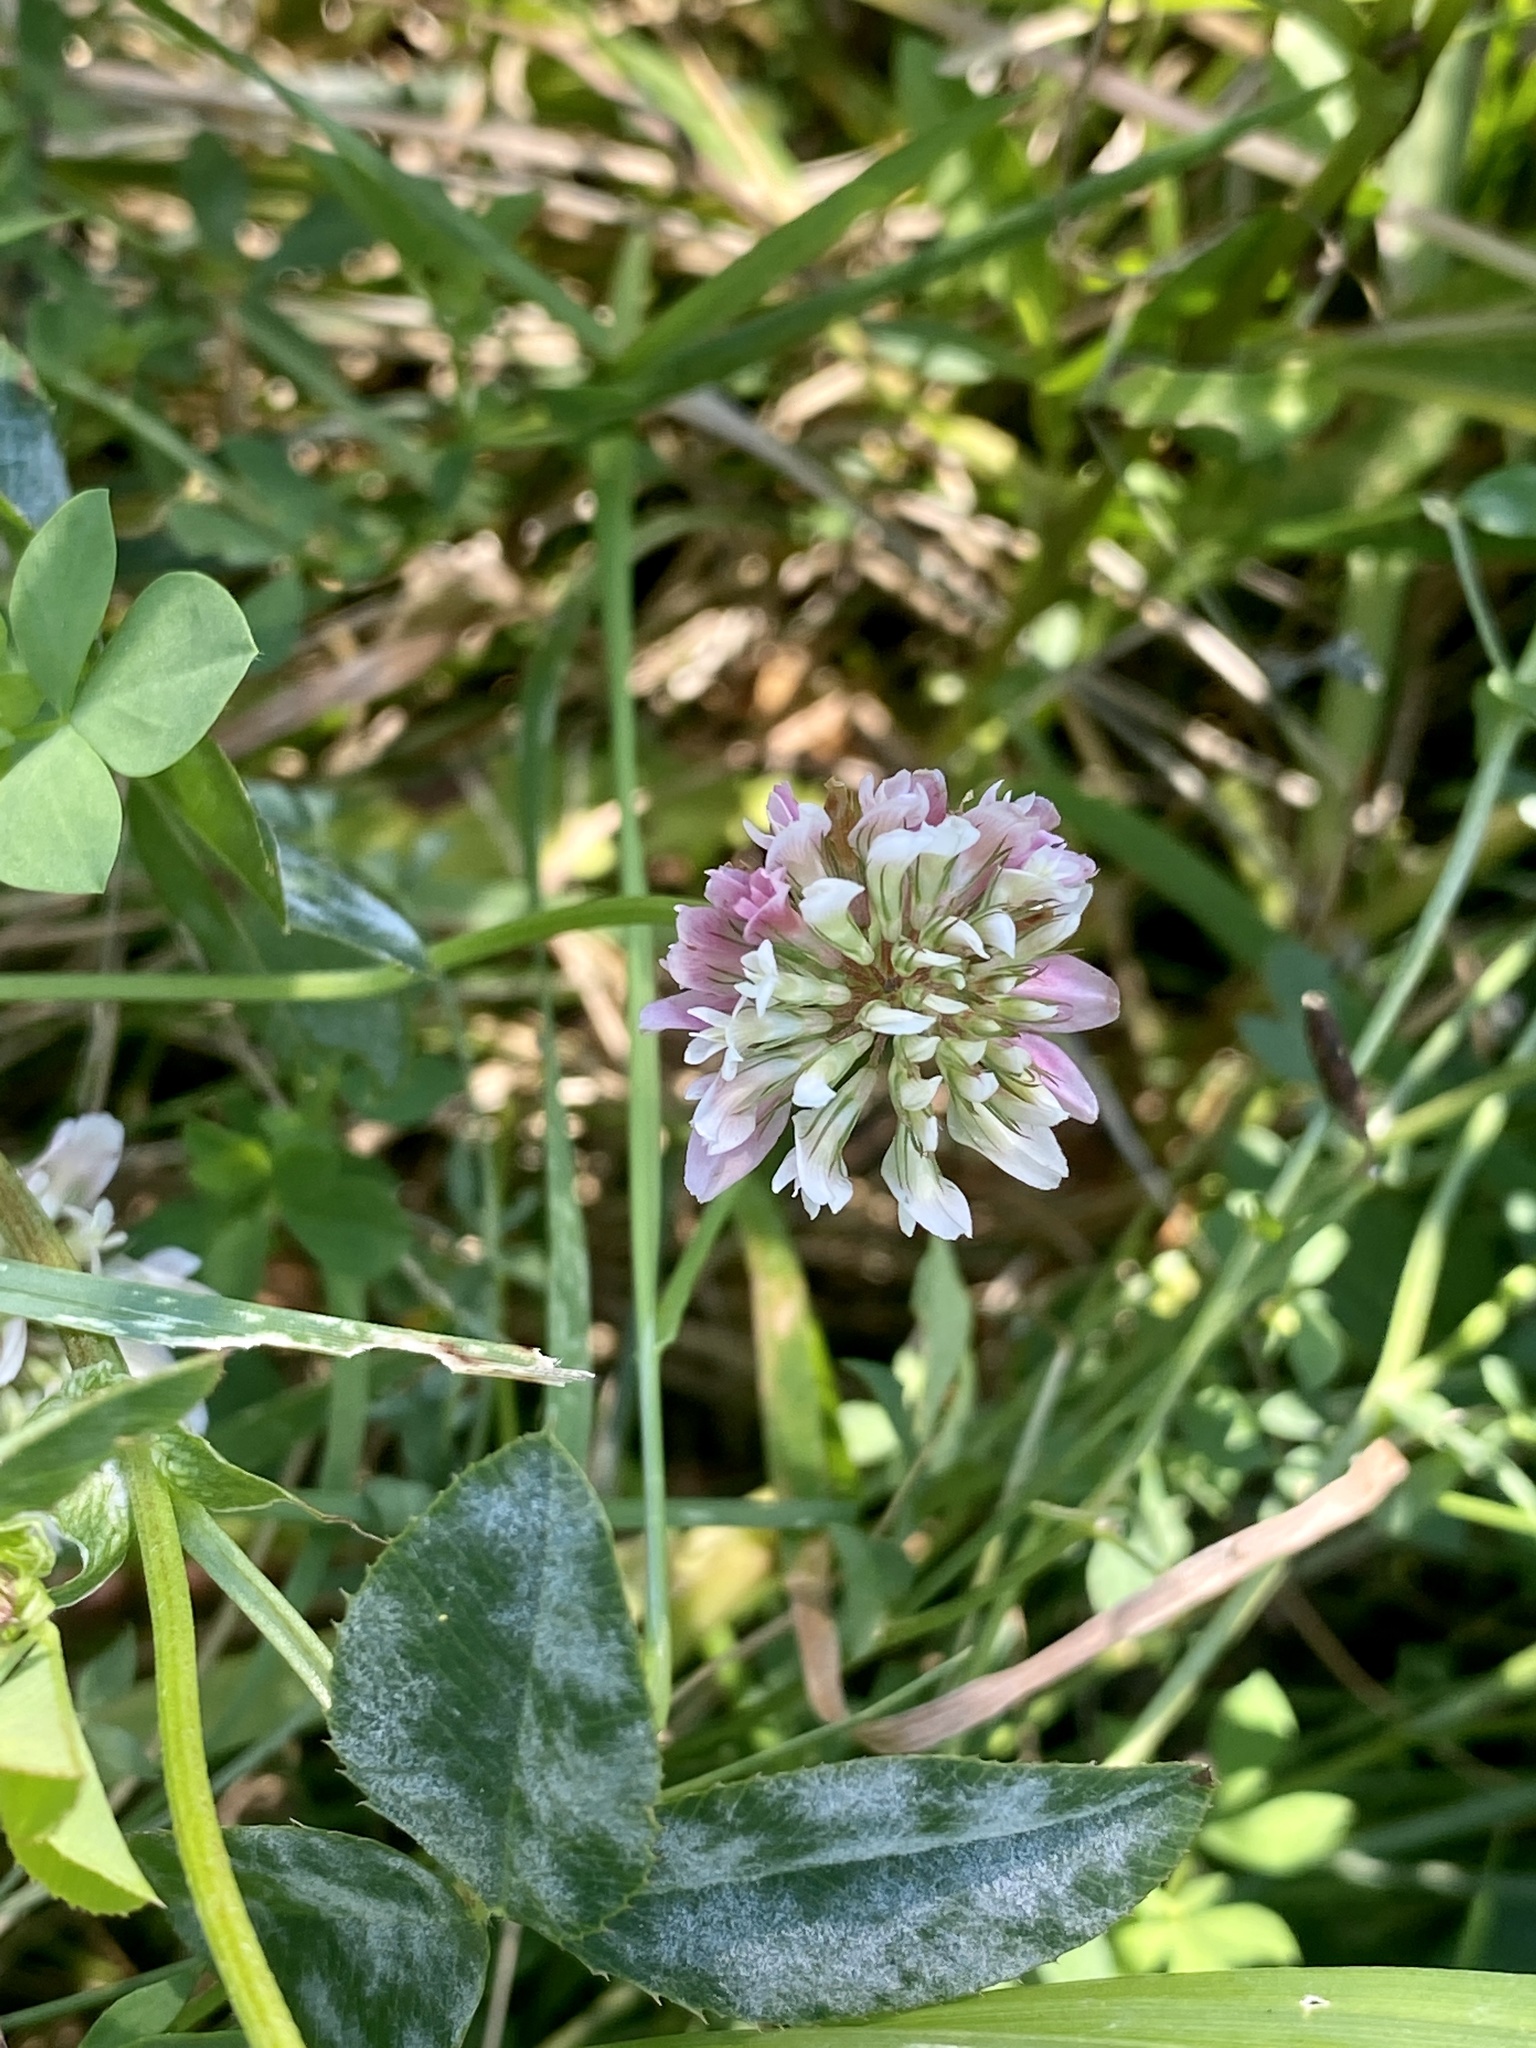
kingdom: Plantae
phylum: Tracheophyta
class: Magnoliopsida
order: Fabales
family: Fabaceae
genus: Trifolium
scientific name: Trifolium repens
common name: White clover
